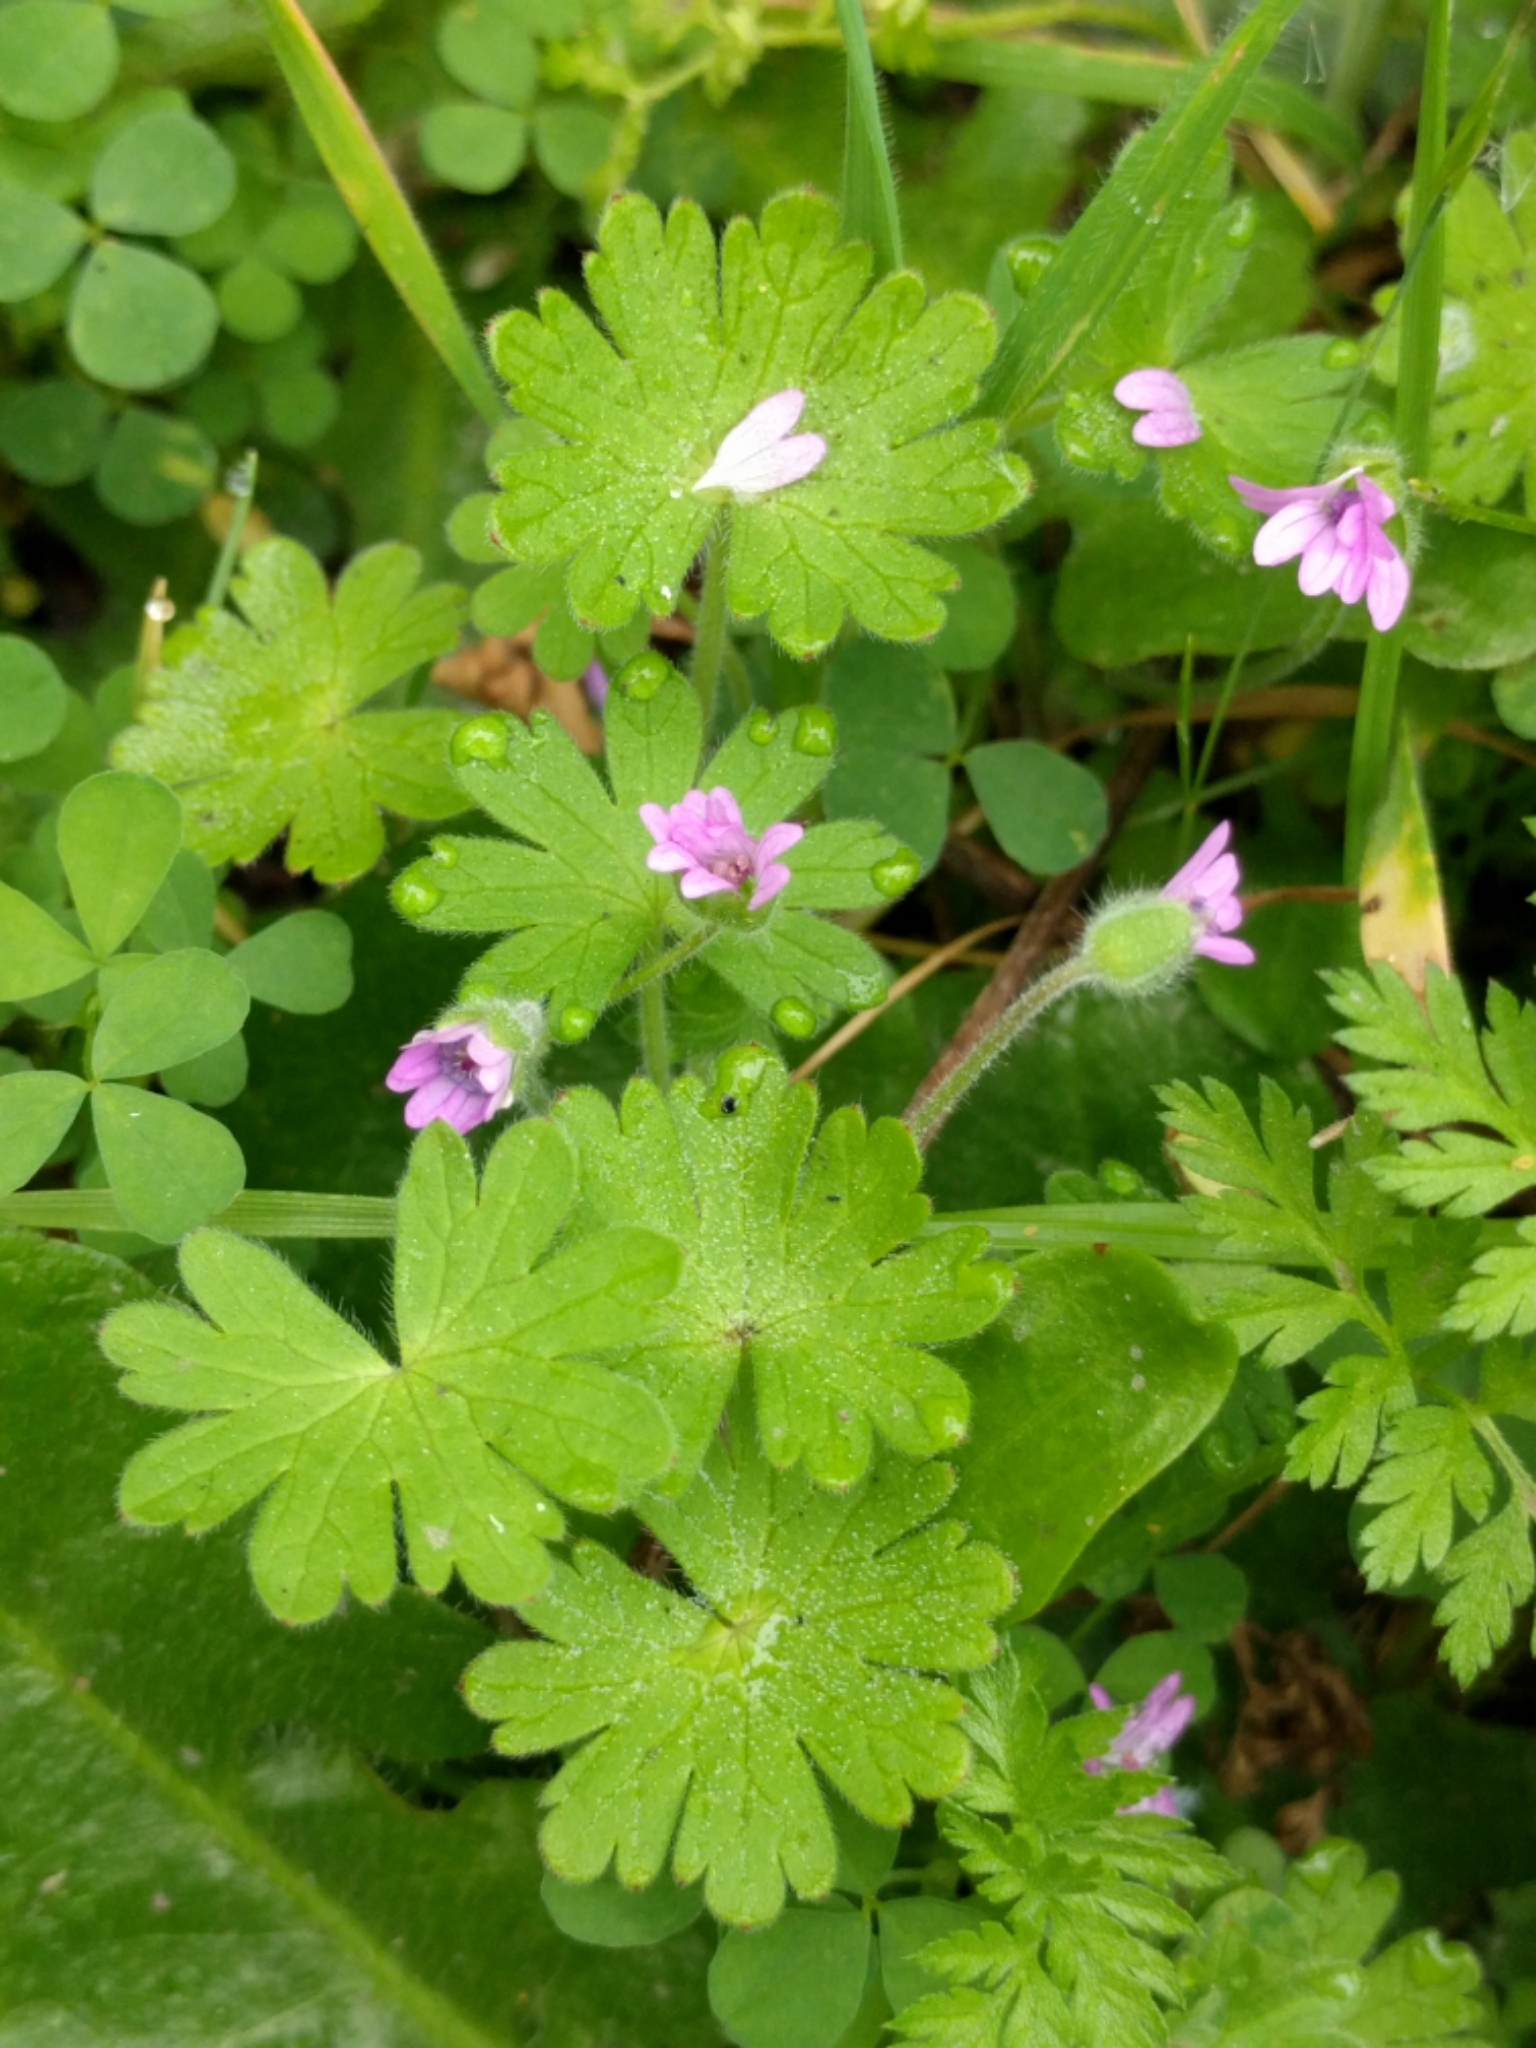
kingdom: Plantae
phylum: Tracheophyta
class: Magnoliopsida
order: Geraniales
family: Geraniaceae
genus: Geranium
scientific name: Geranium molle
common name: Dove's-foot crane's-bill
